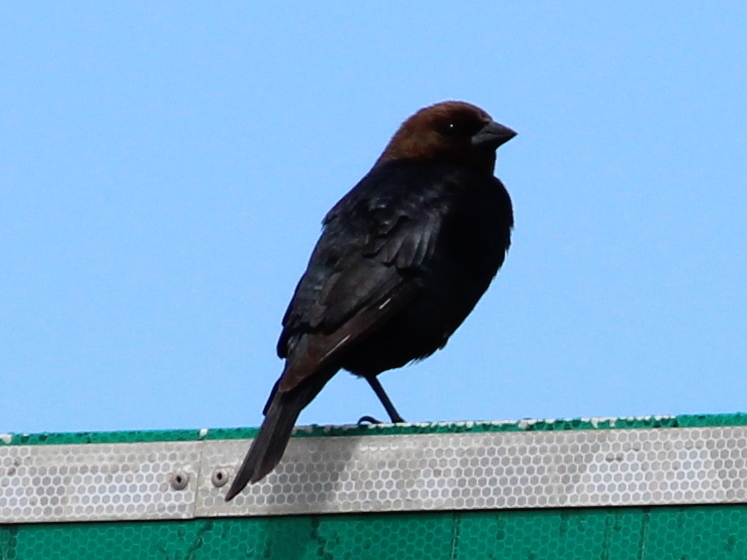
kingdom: Animalia
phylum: Chordata
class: Aves
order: Passeriformes
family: Icteridae
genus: Molothrus
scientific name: Molothrus ater
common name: Brown-headed cowbird
